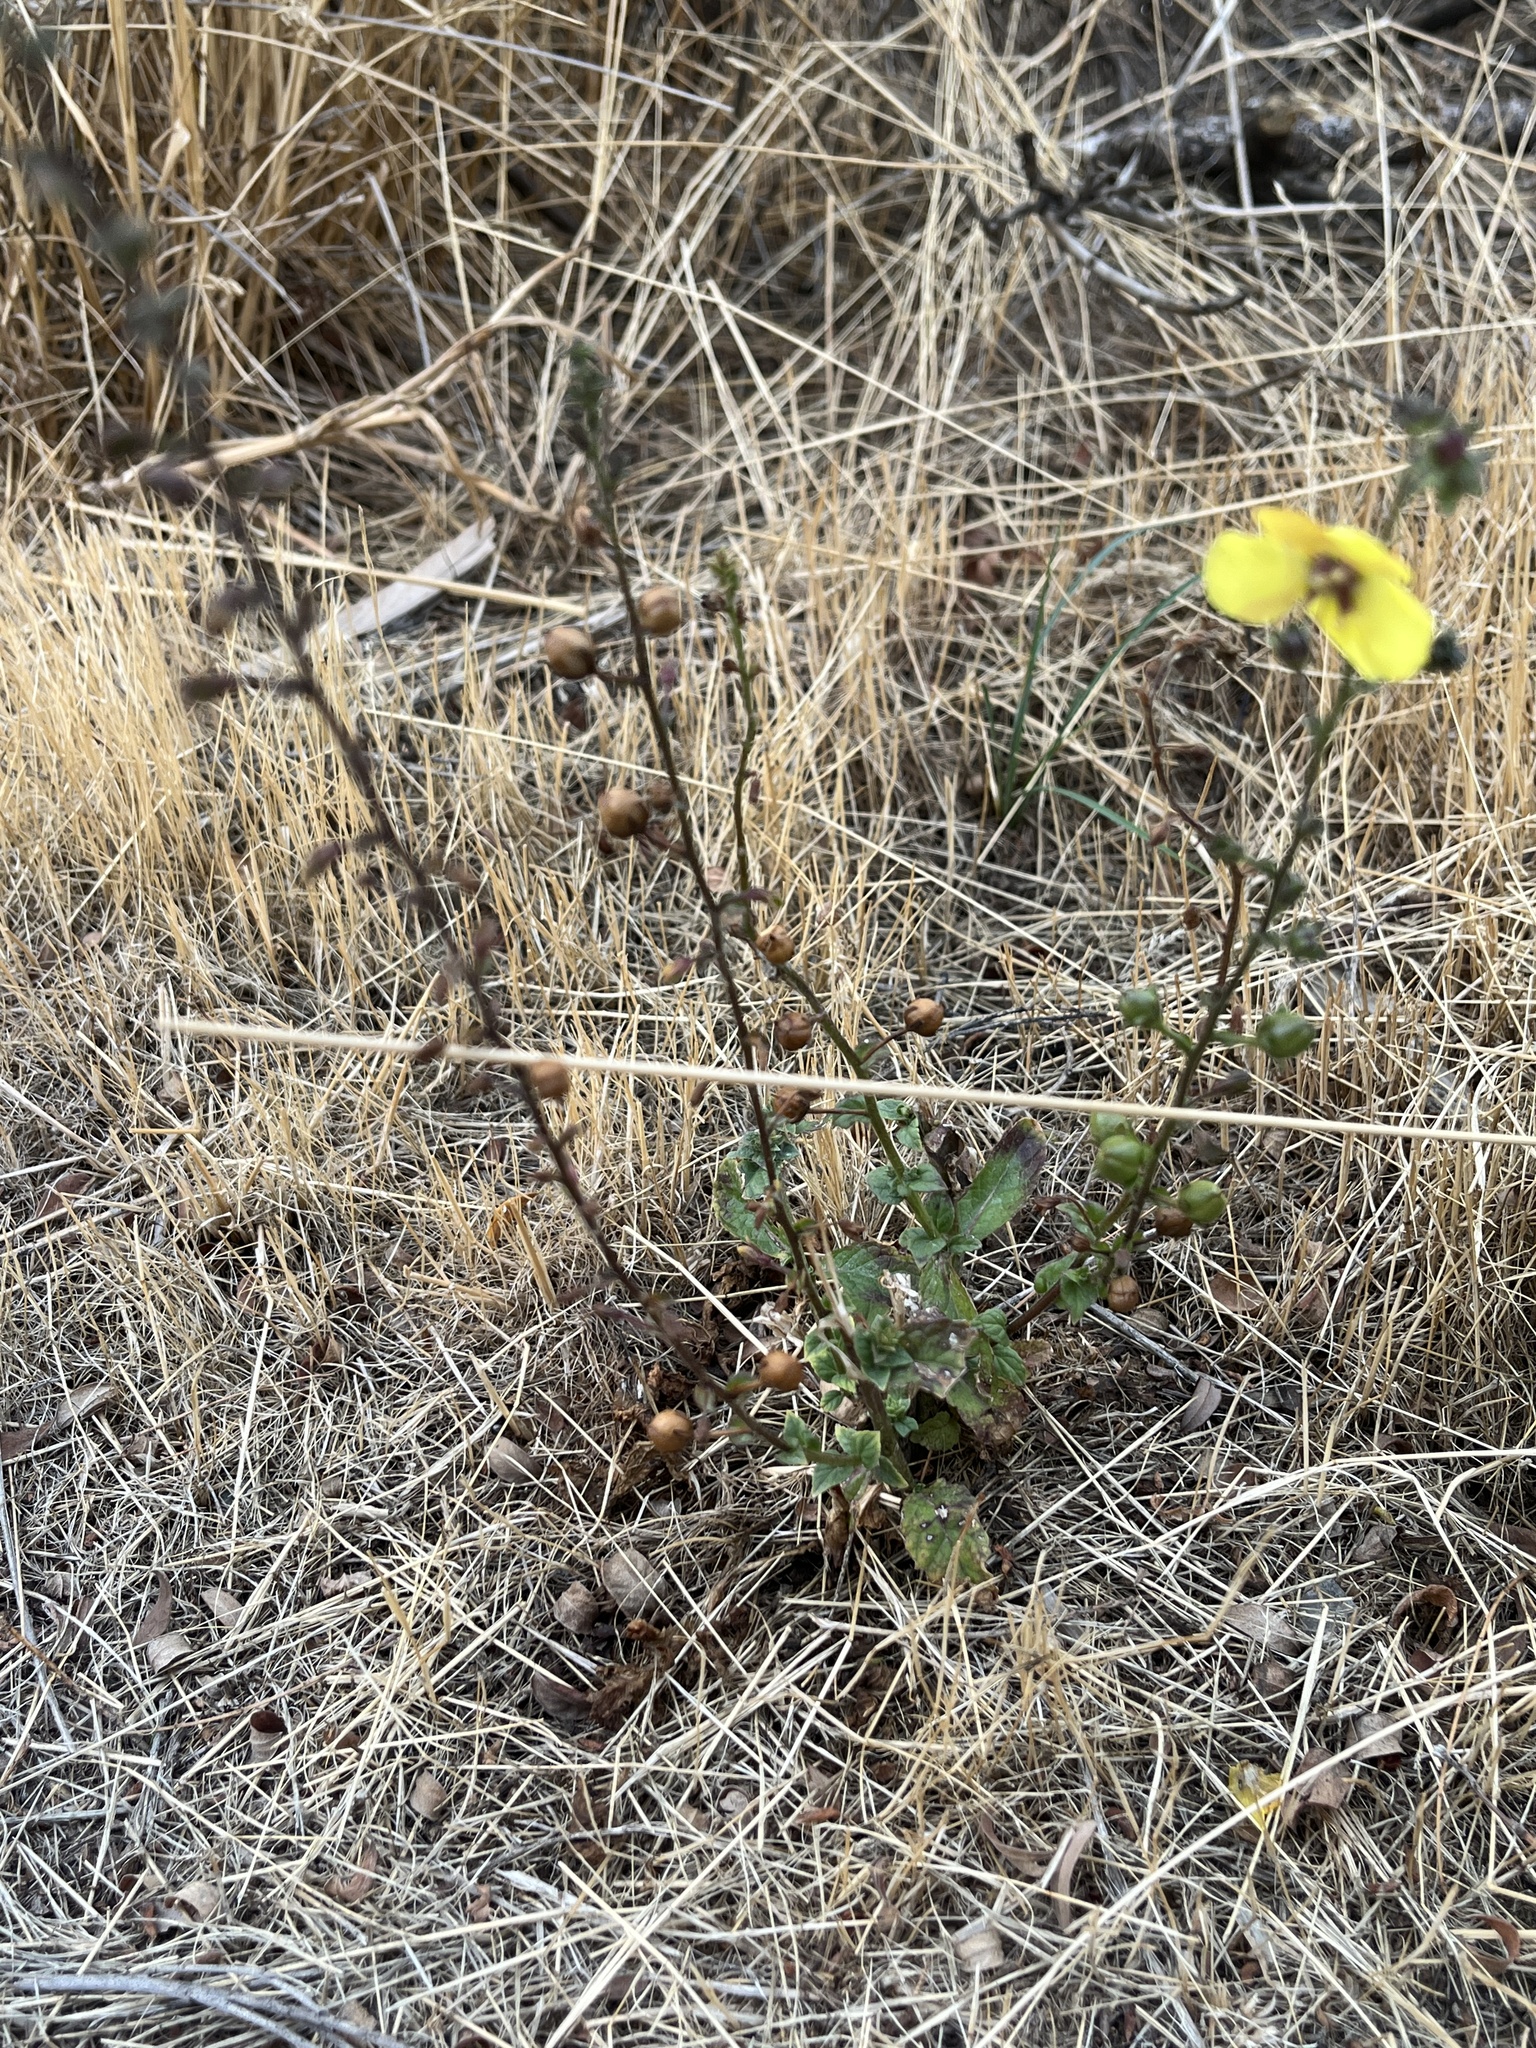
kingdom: Plantae
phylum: Tracheophyta
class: Magnoliopsida
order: Lamiales
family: Scrophulariaceae
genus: Verbascum
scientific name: Verbascum blattaria
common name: Moth mullein
